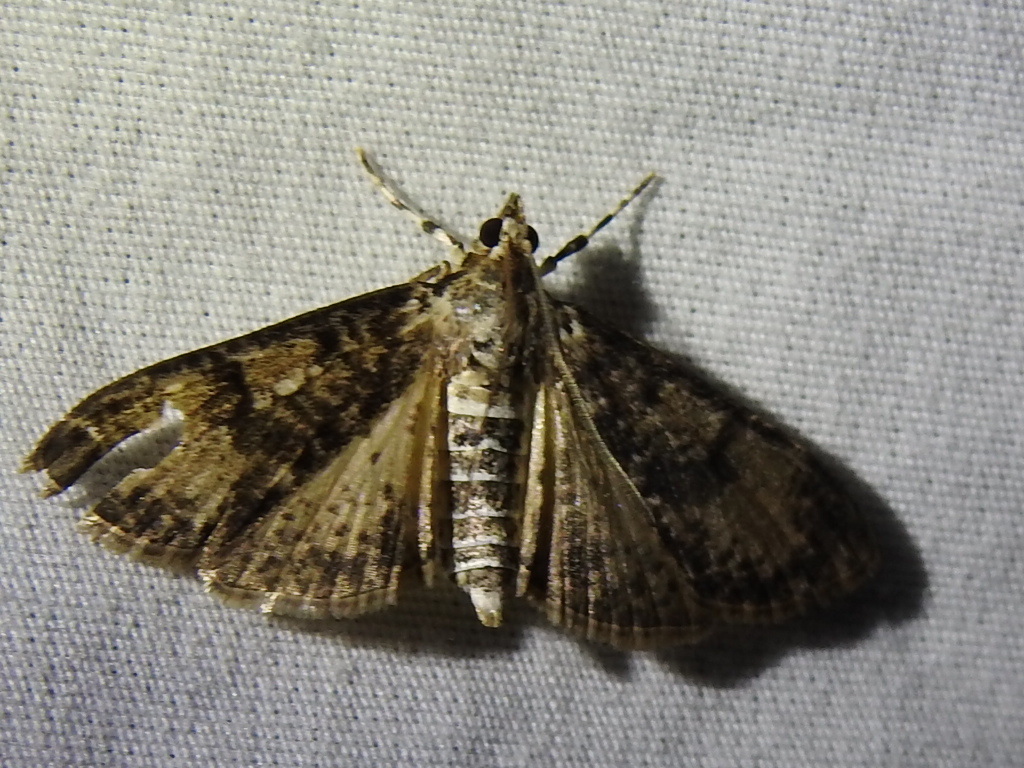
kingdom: Animalia
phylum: Arthropoda
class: Insecta
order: Lepidoptera
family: Crambidae
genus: Palpita
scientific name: Palpita magniferalis
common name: Splendid palpita moth
